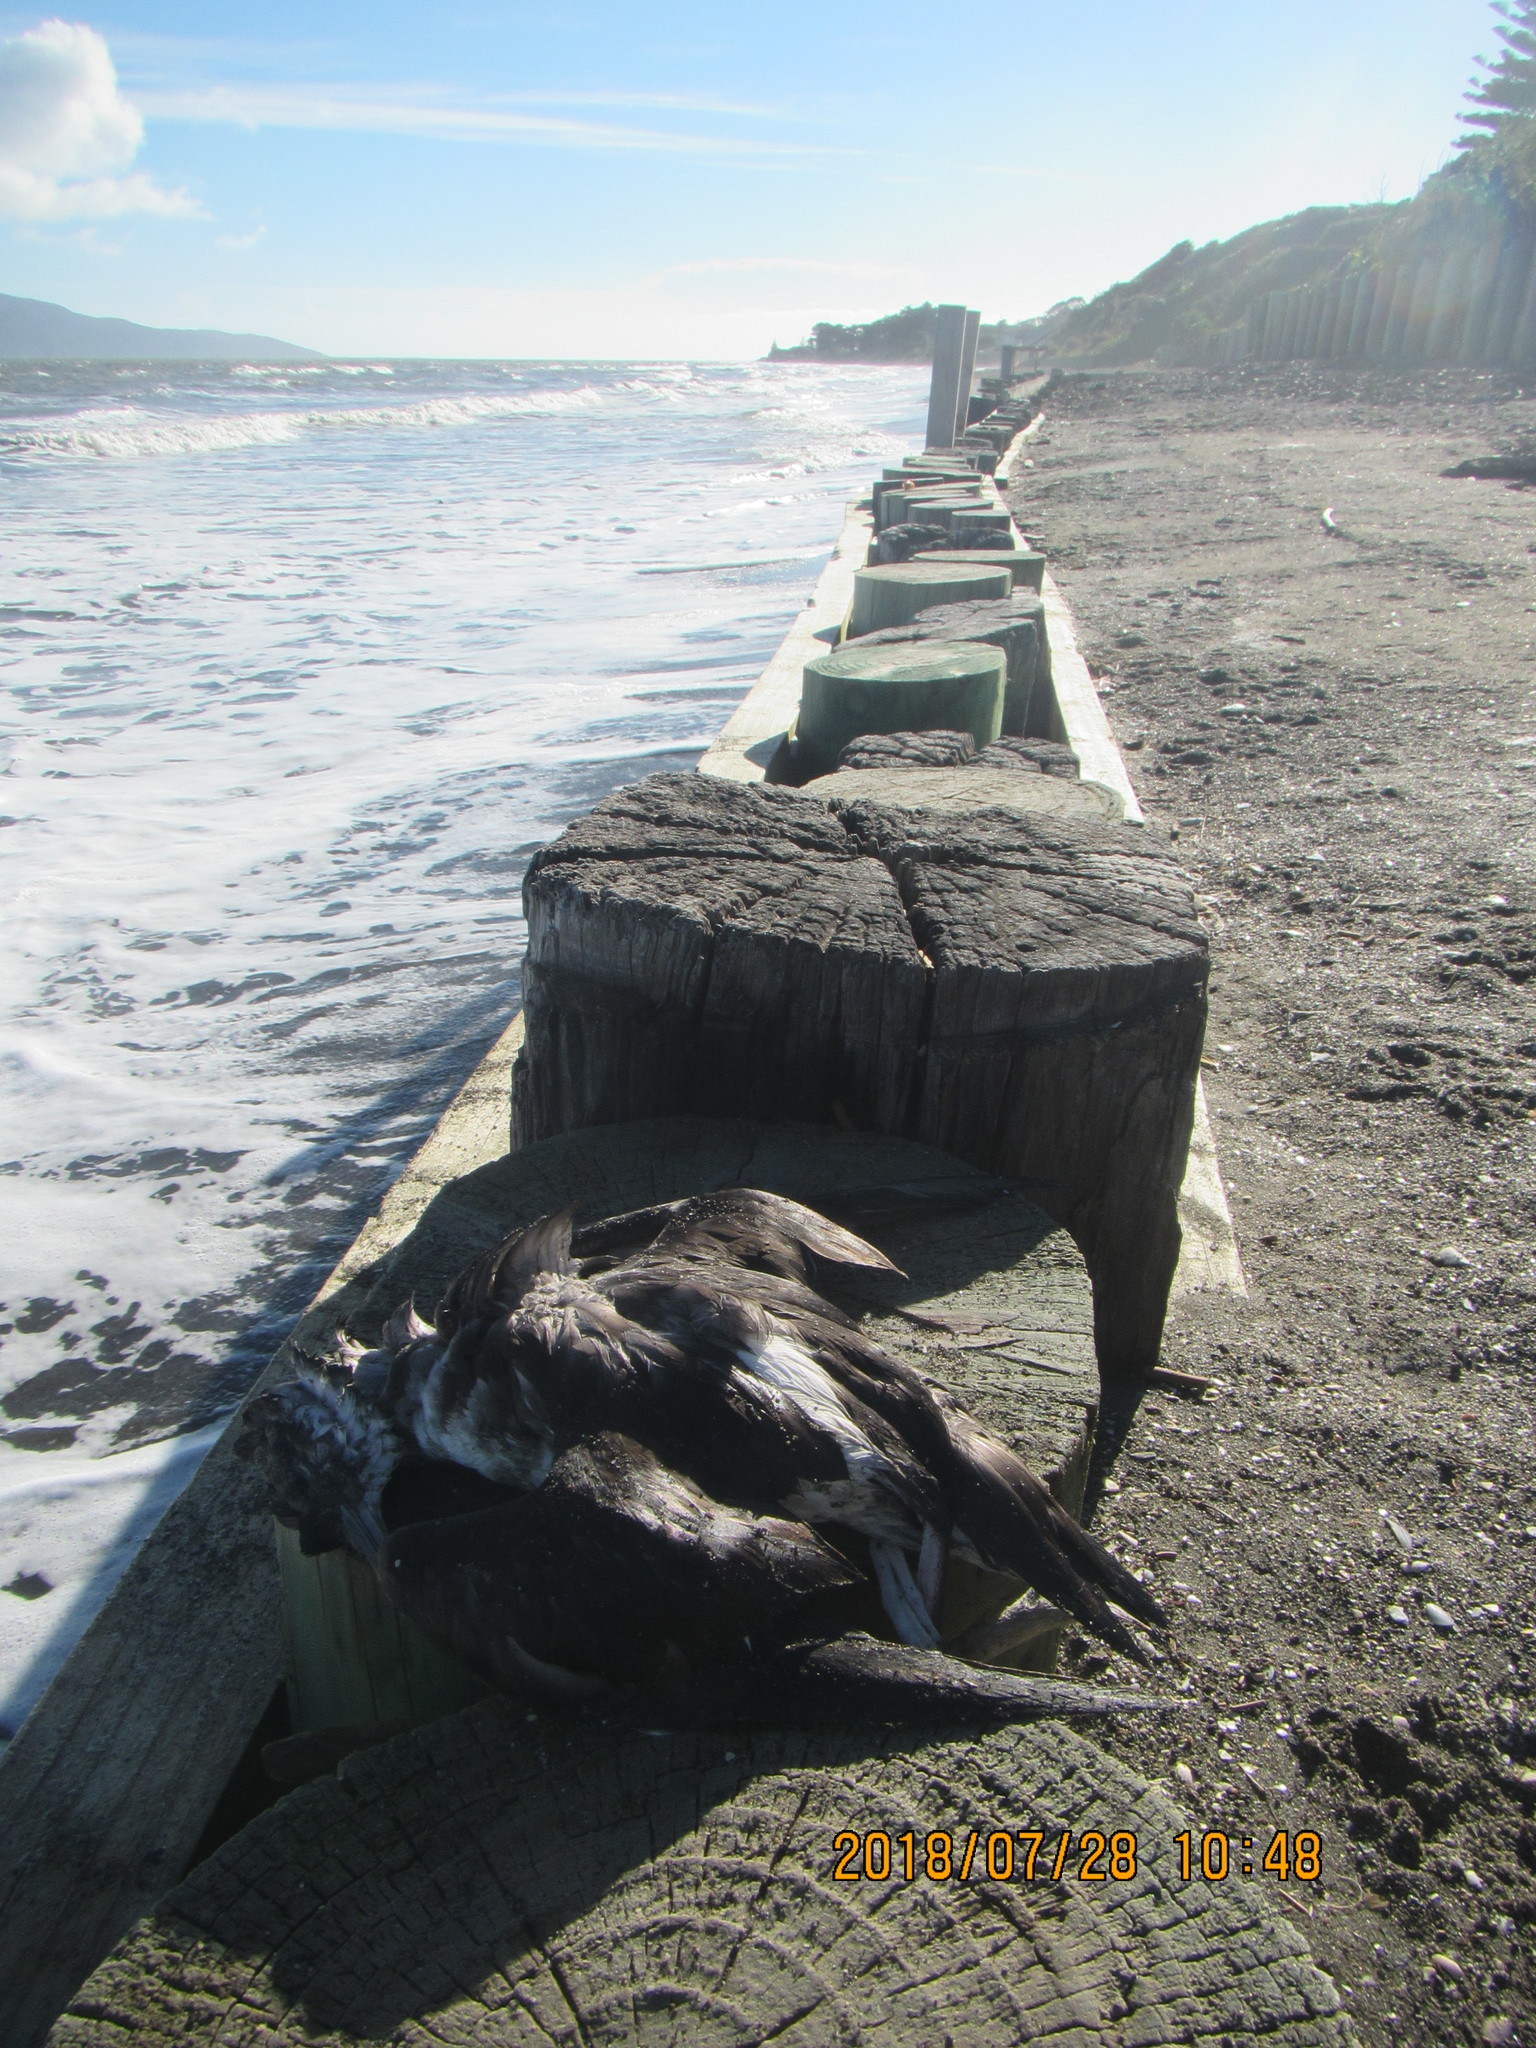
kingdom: Animalia
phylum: Chordata
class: Aves
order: Procellariiformes
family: Procellariidae
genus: Pachyptila
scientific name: Pachyptila turtur
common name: Fairy prion
